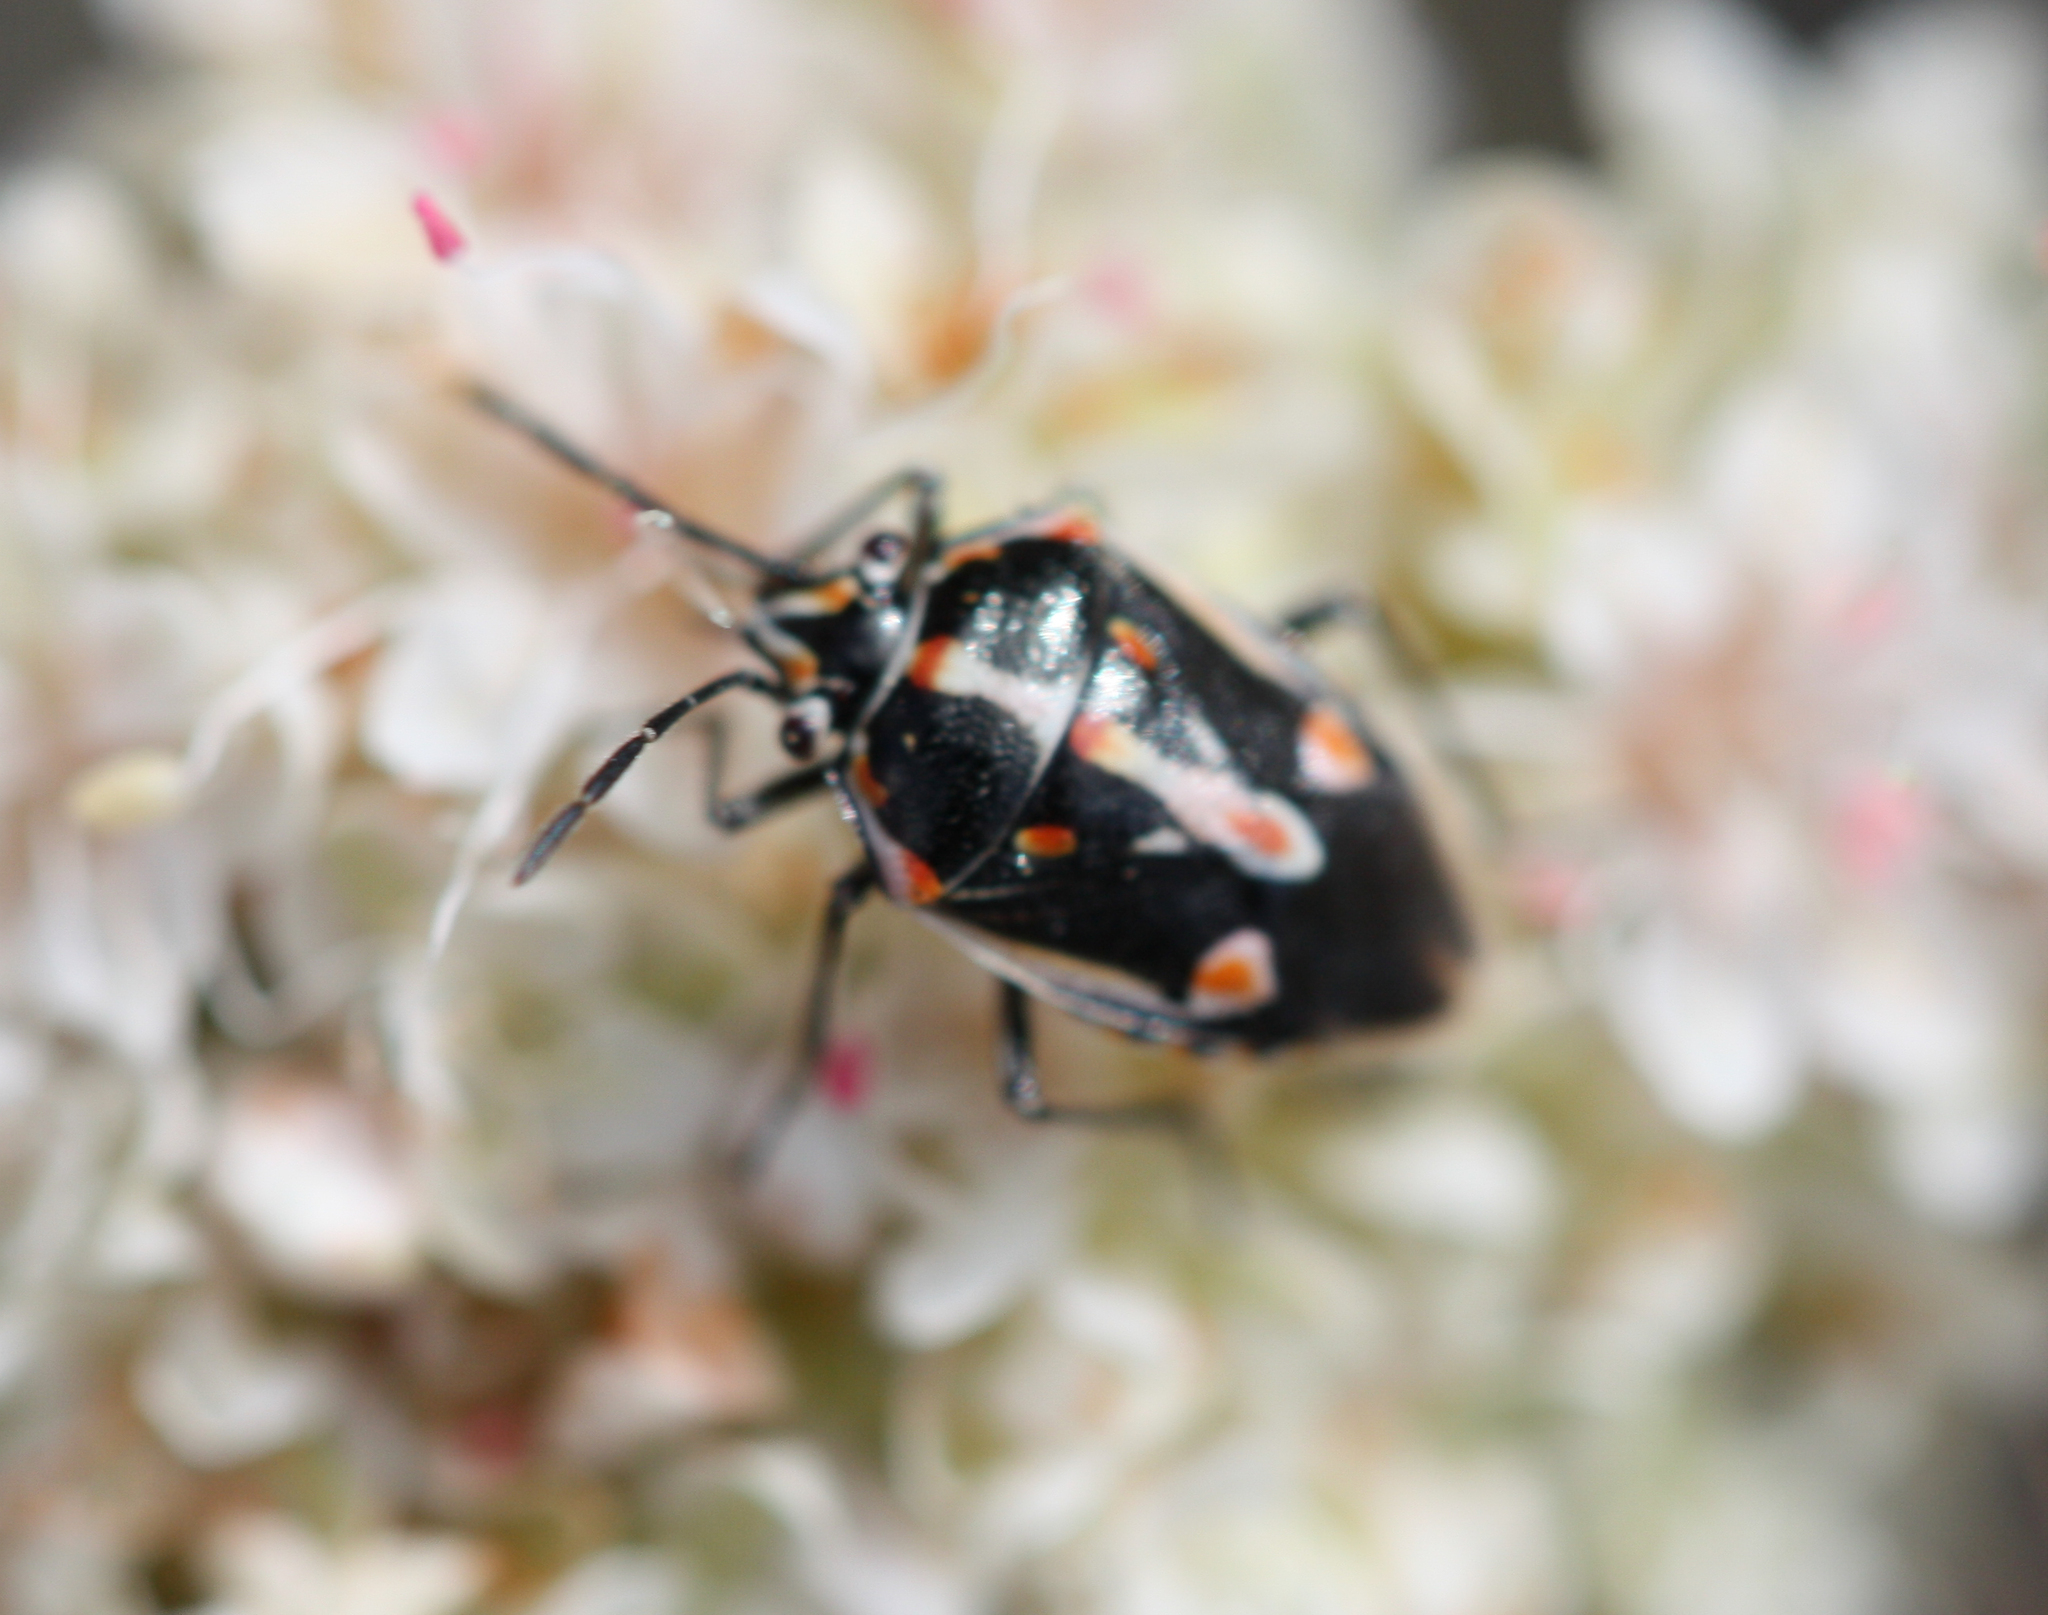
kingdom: Animalia
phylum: Arthropoda
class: Insecta
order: Hemiptera
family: Pentatomidae
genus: Bagrada
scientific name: Bagrada hilaris
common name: Bagrada bug
